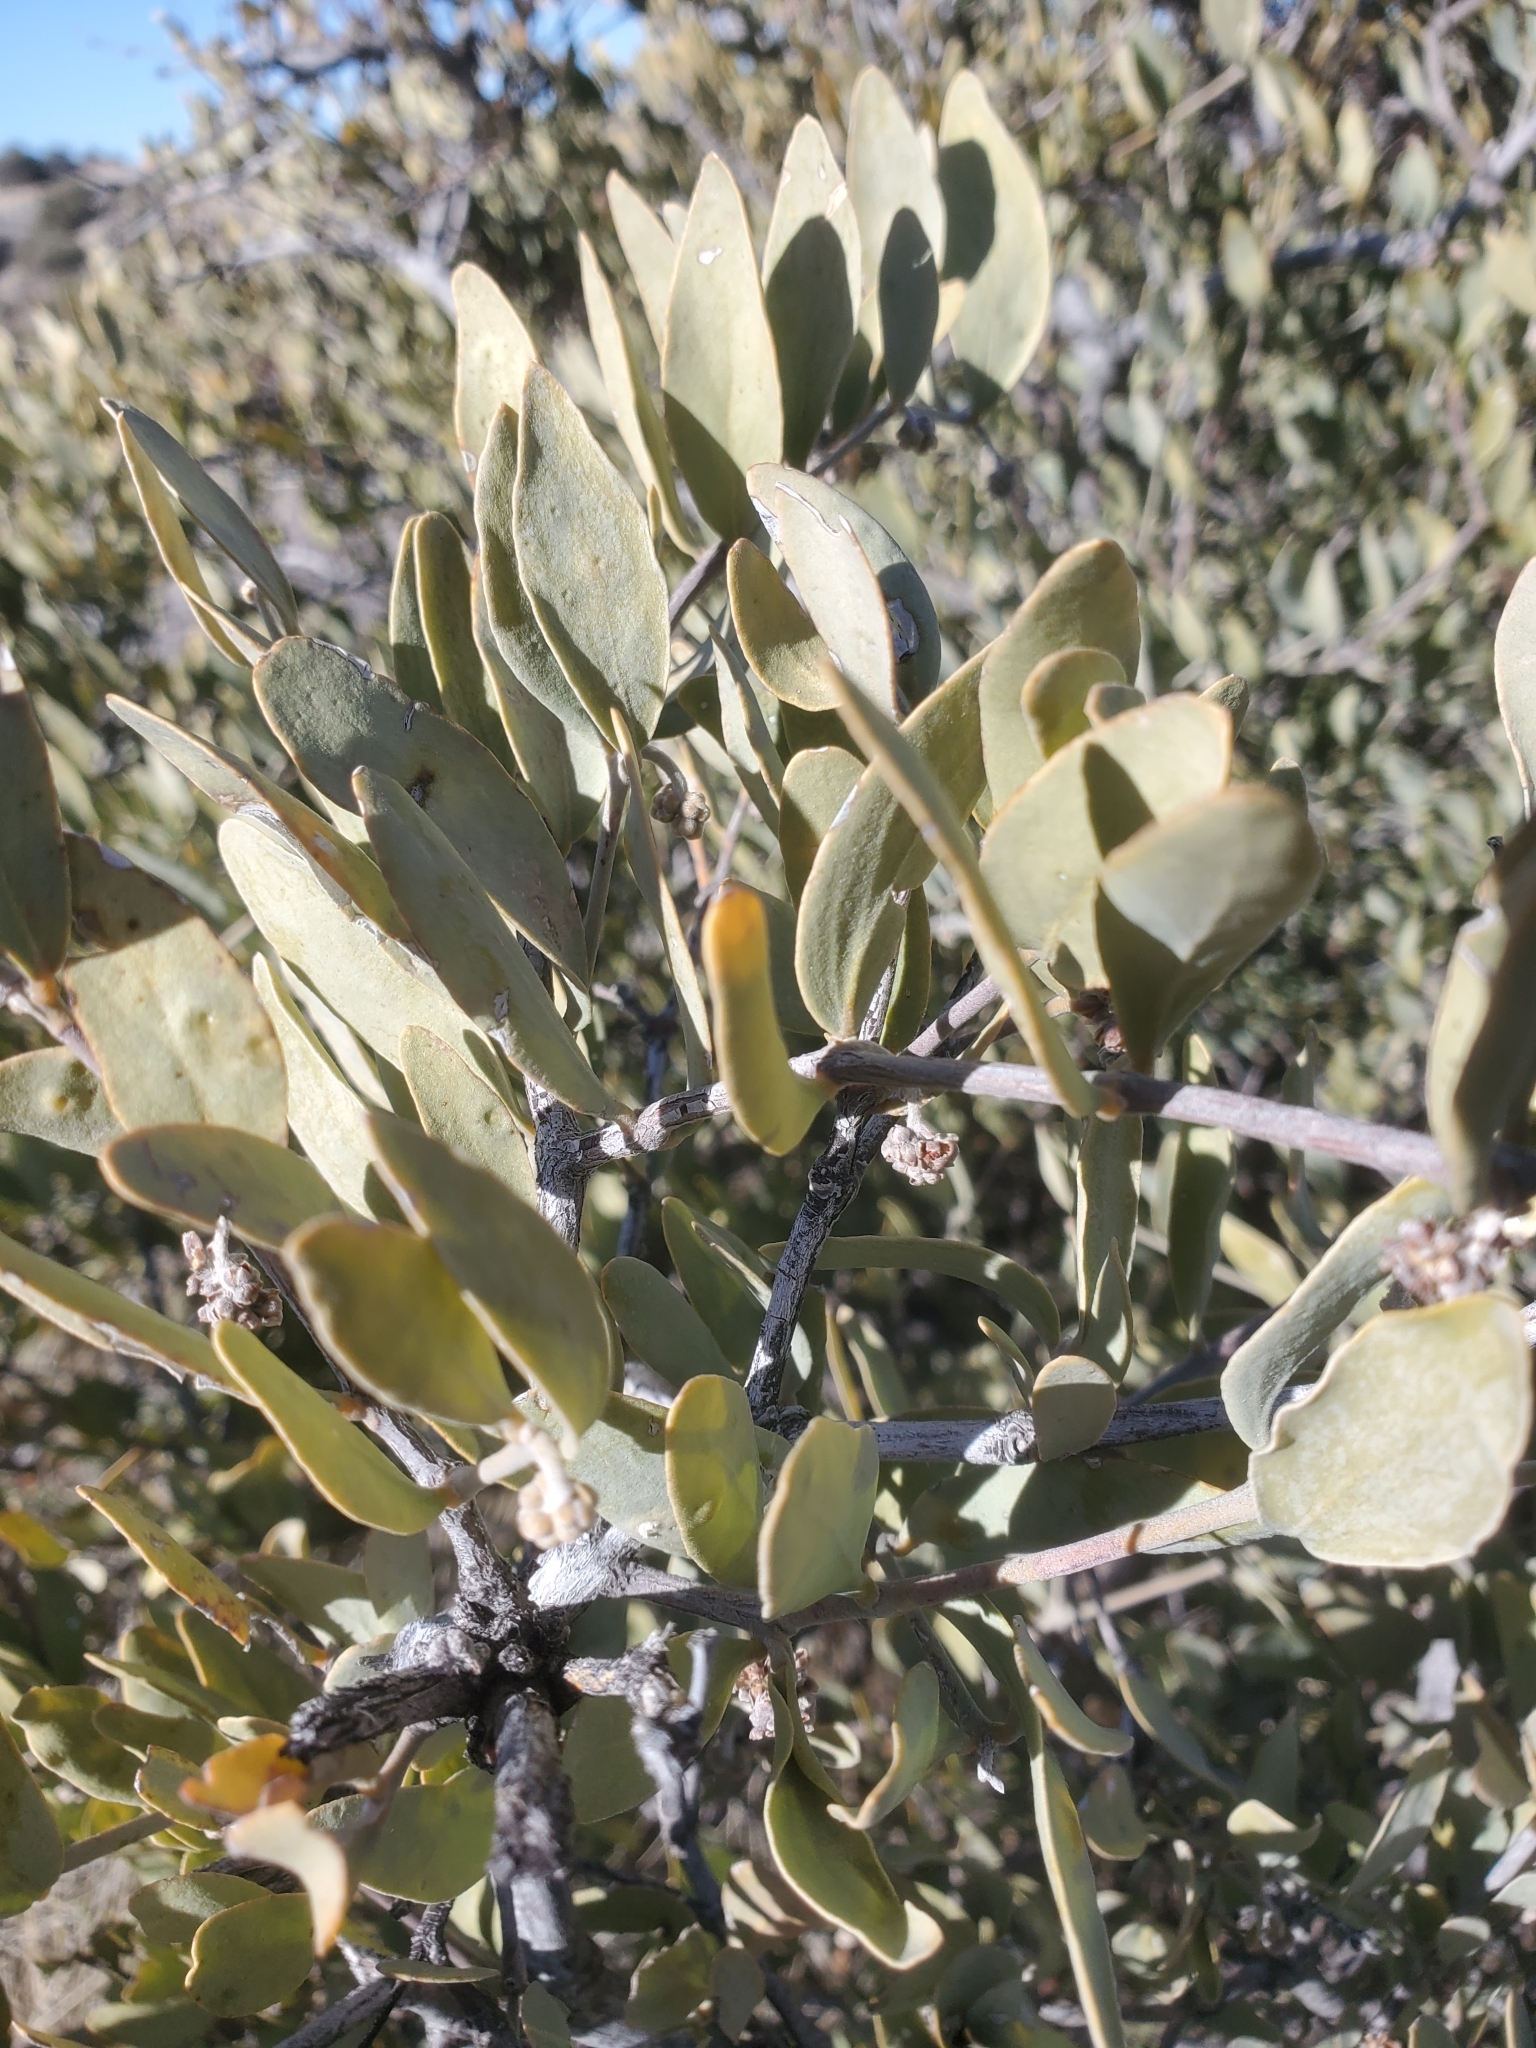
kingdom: Plantae
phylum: Tracheophyta
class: Magnoliopsida
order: Caryophyllales
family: Simmondsiaceae
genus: Simmondsia
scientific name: Simmondsia chinensis
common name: Jojoba
